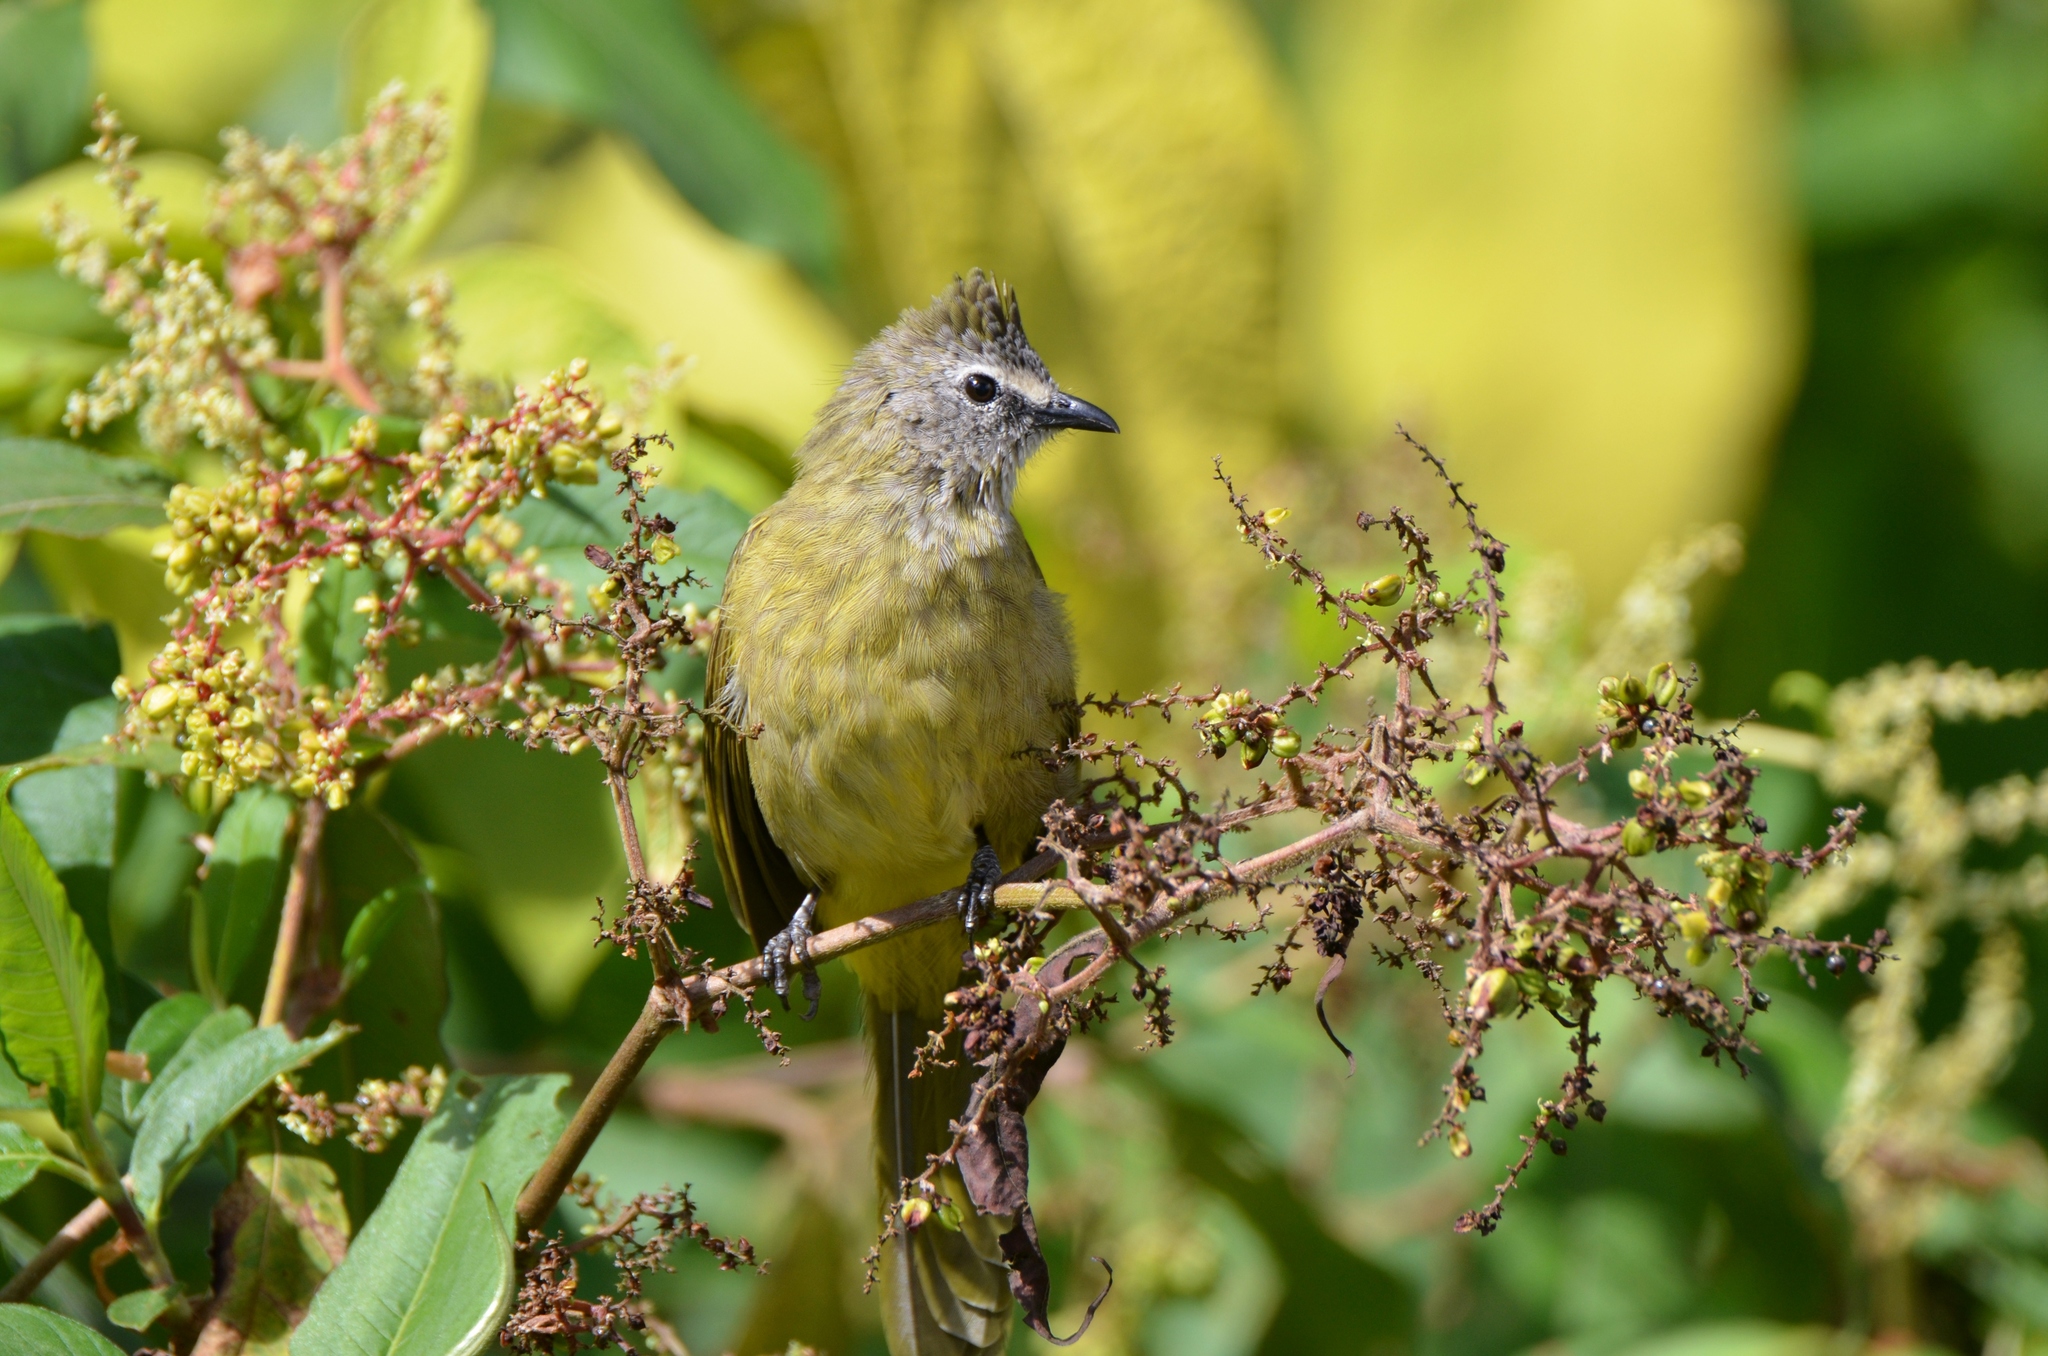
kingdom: Animalia
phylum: Chordata
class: Aves
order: Passeriformes
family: Pycnonotidae
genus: Pycnonotus
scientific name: Pycnonotus flavescens
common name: Flavescent bulbul
